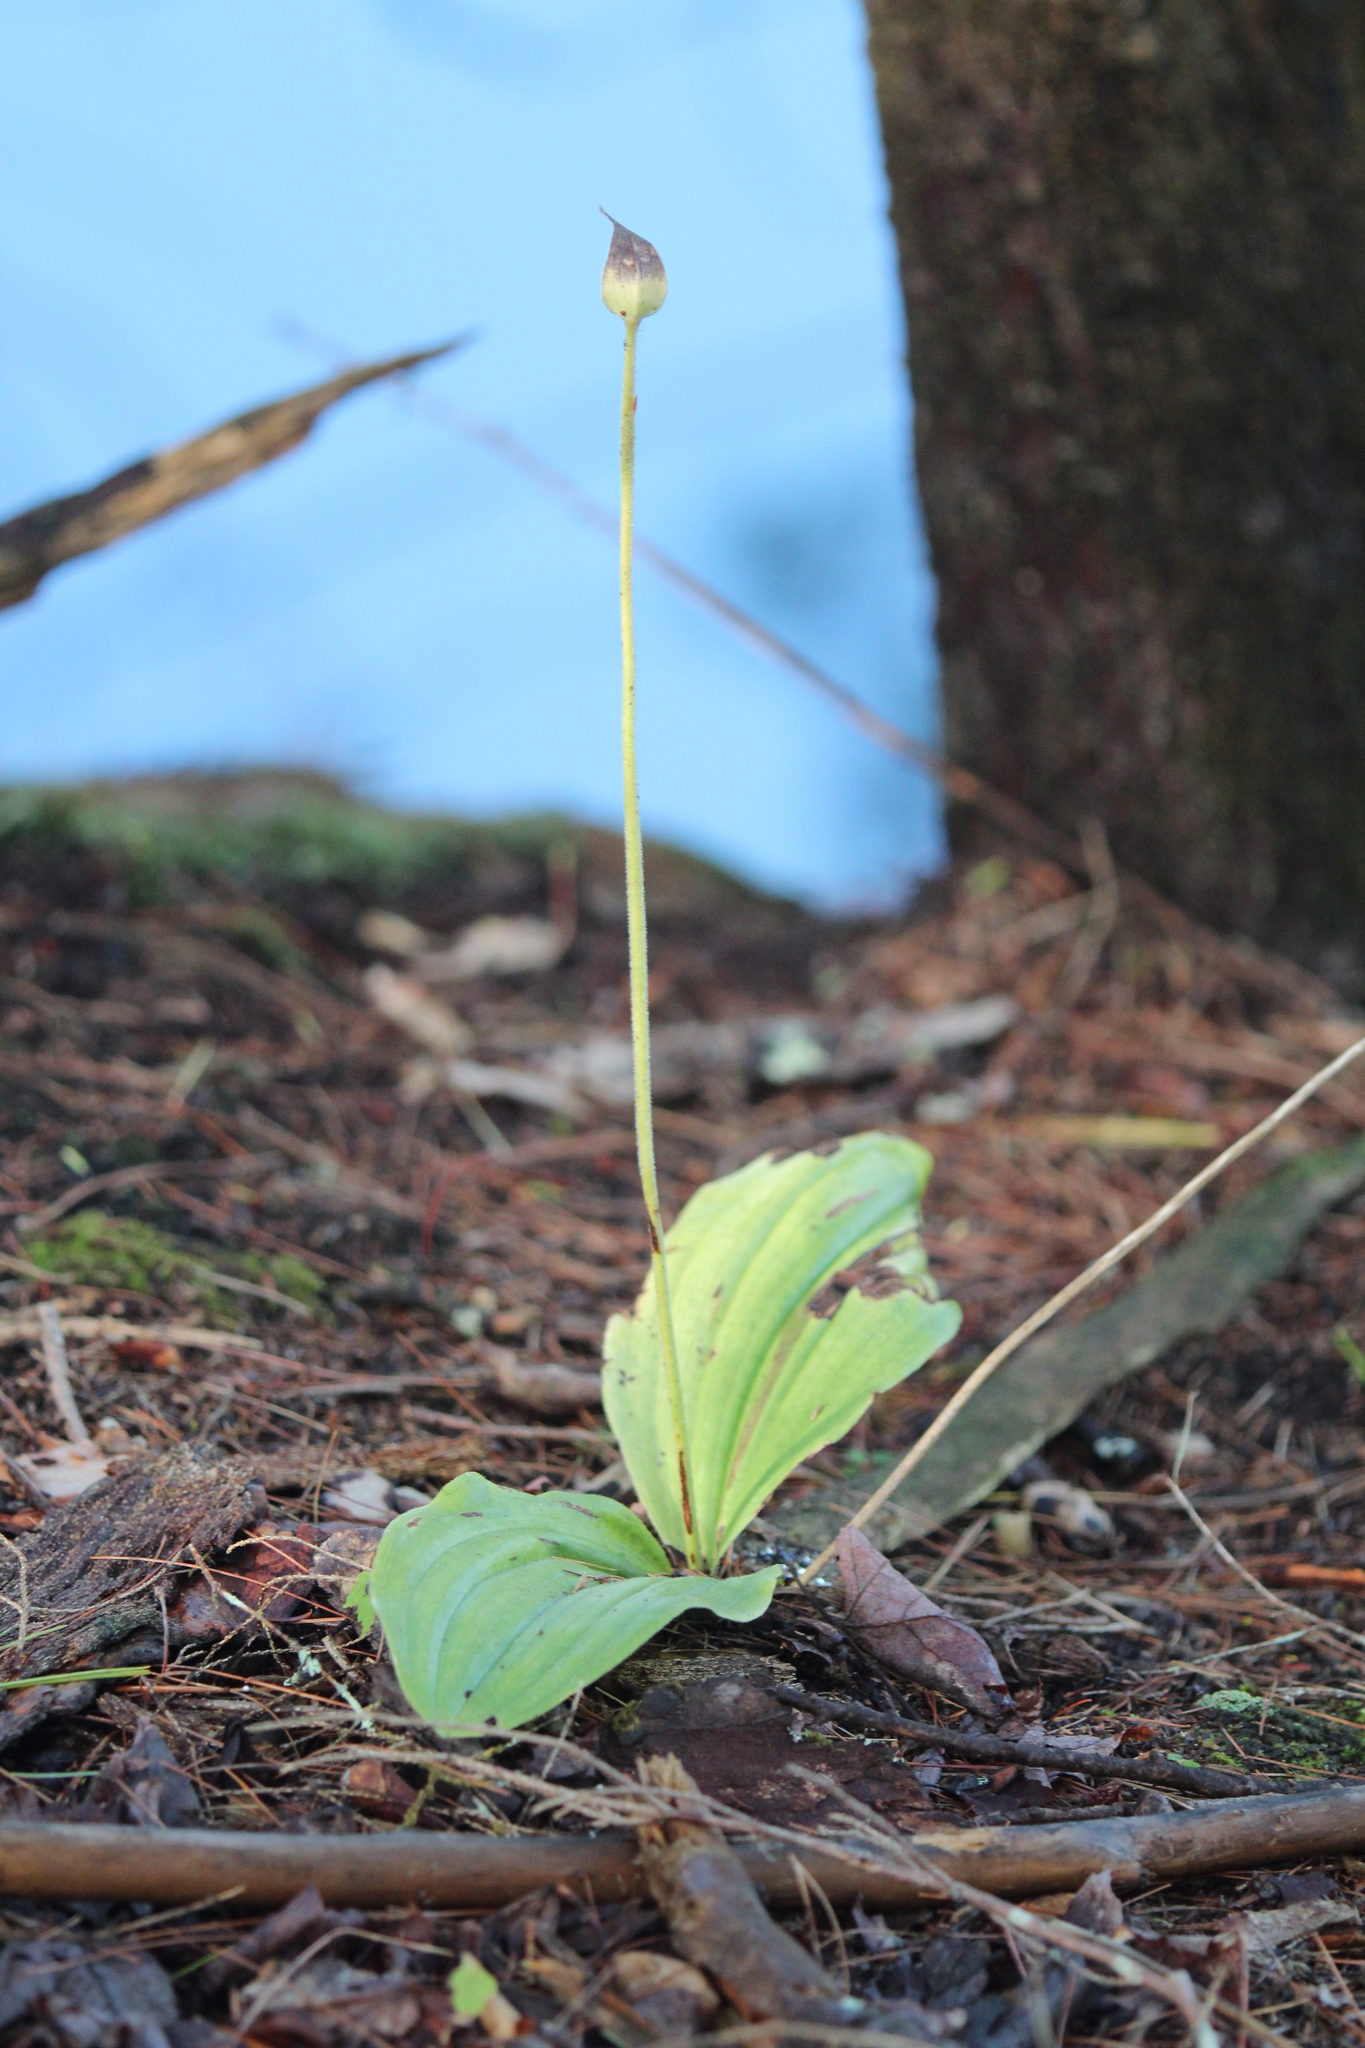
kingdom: Plantae
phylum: Tracheophyta
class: Liliopsida
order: Asparagales
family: Orchidaceae
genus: Cypripedium
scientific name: Cypripedium acaule
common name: Pink lady's-slipper
